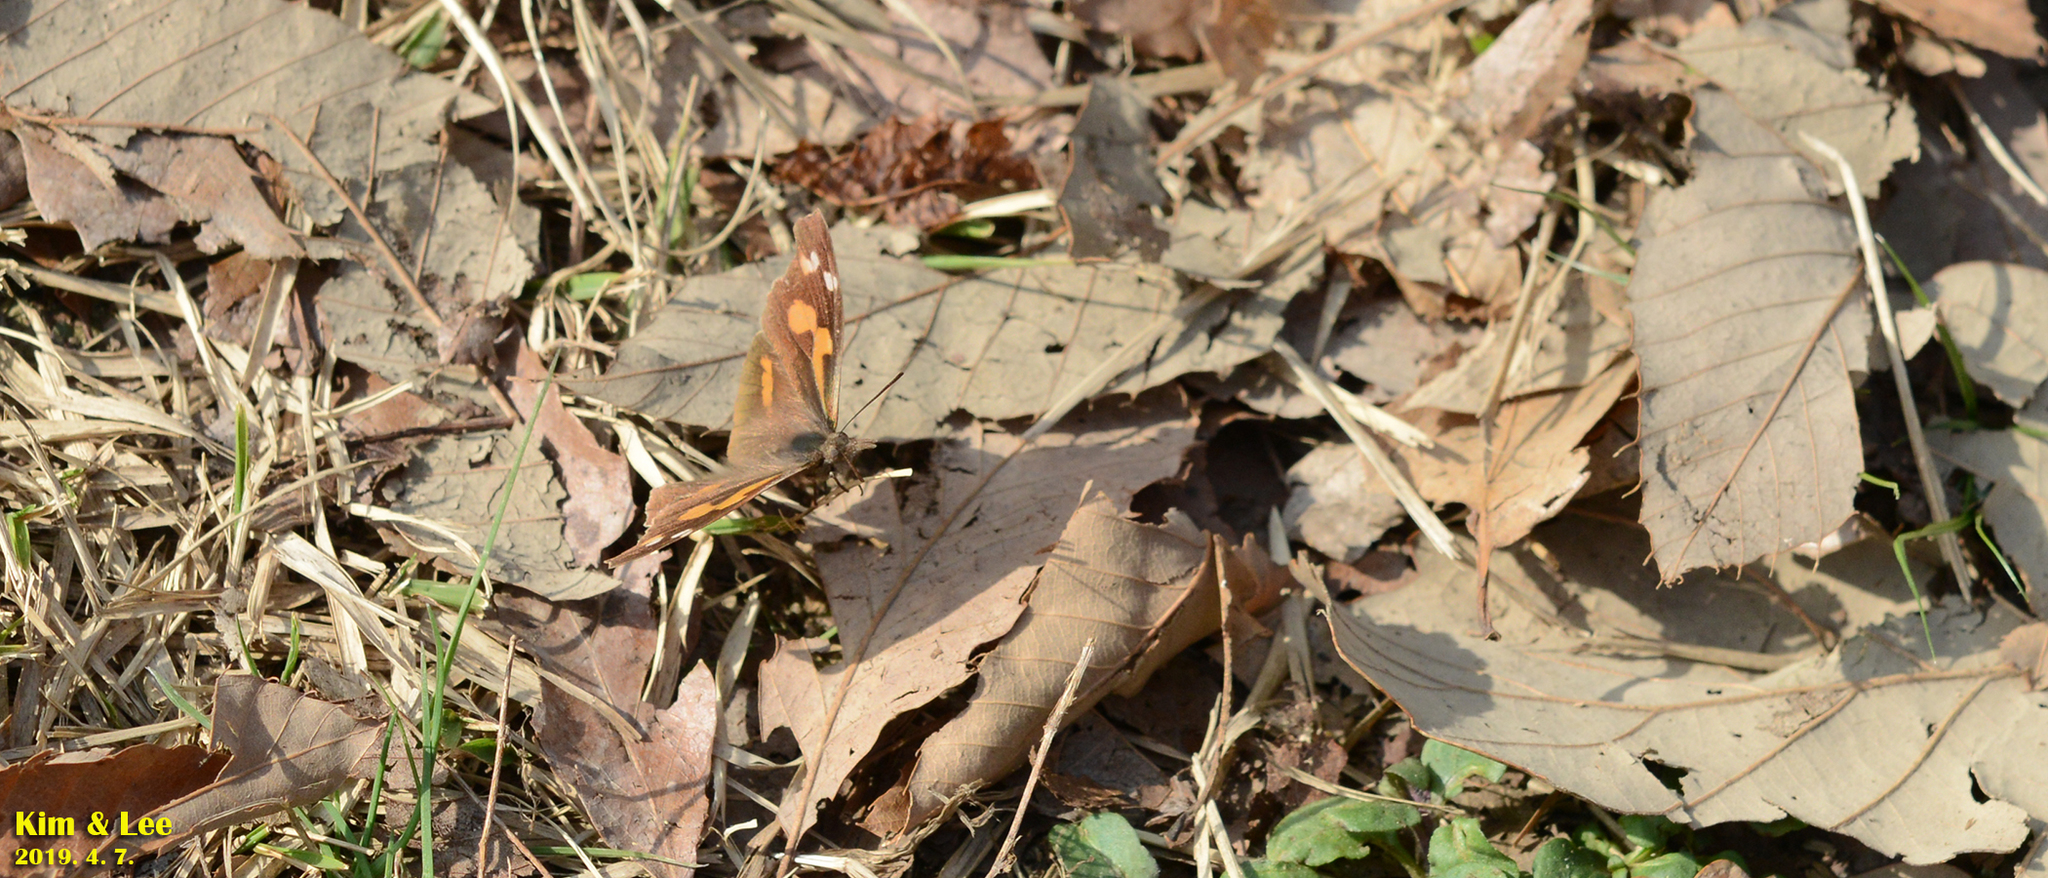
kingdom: Animalia
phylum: Arthropoda
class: Insecta
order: Lepidoptera
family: Nymphalidae
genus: Libythea
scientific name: Libythea lepita
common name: Common beak
